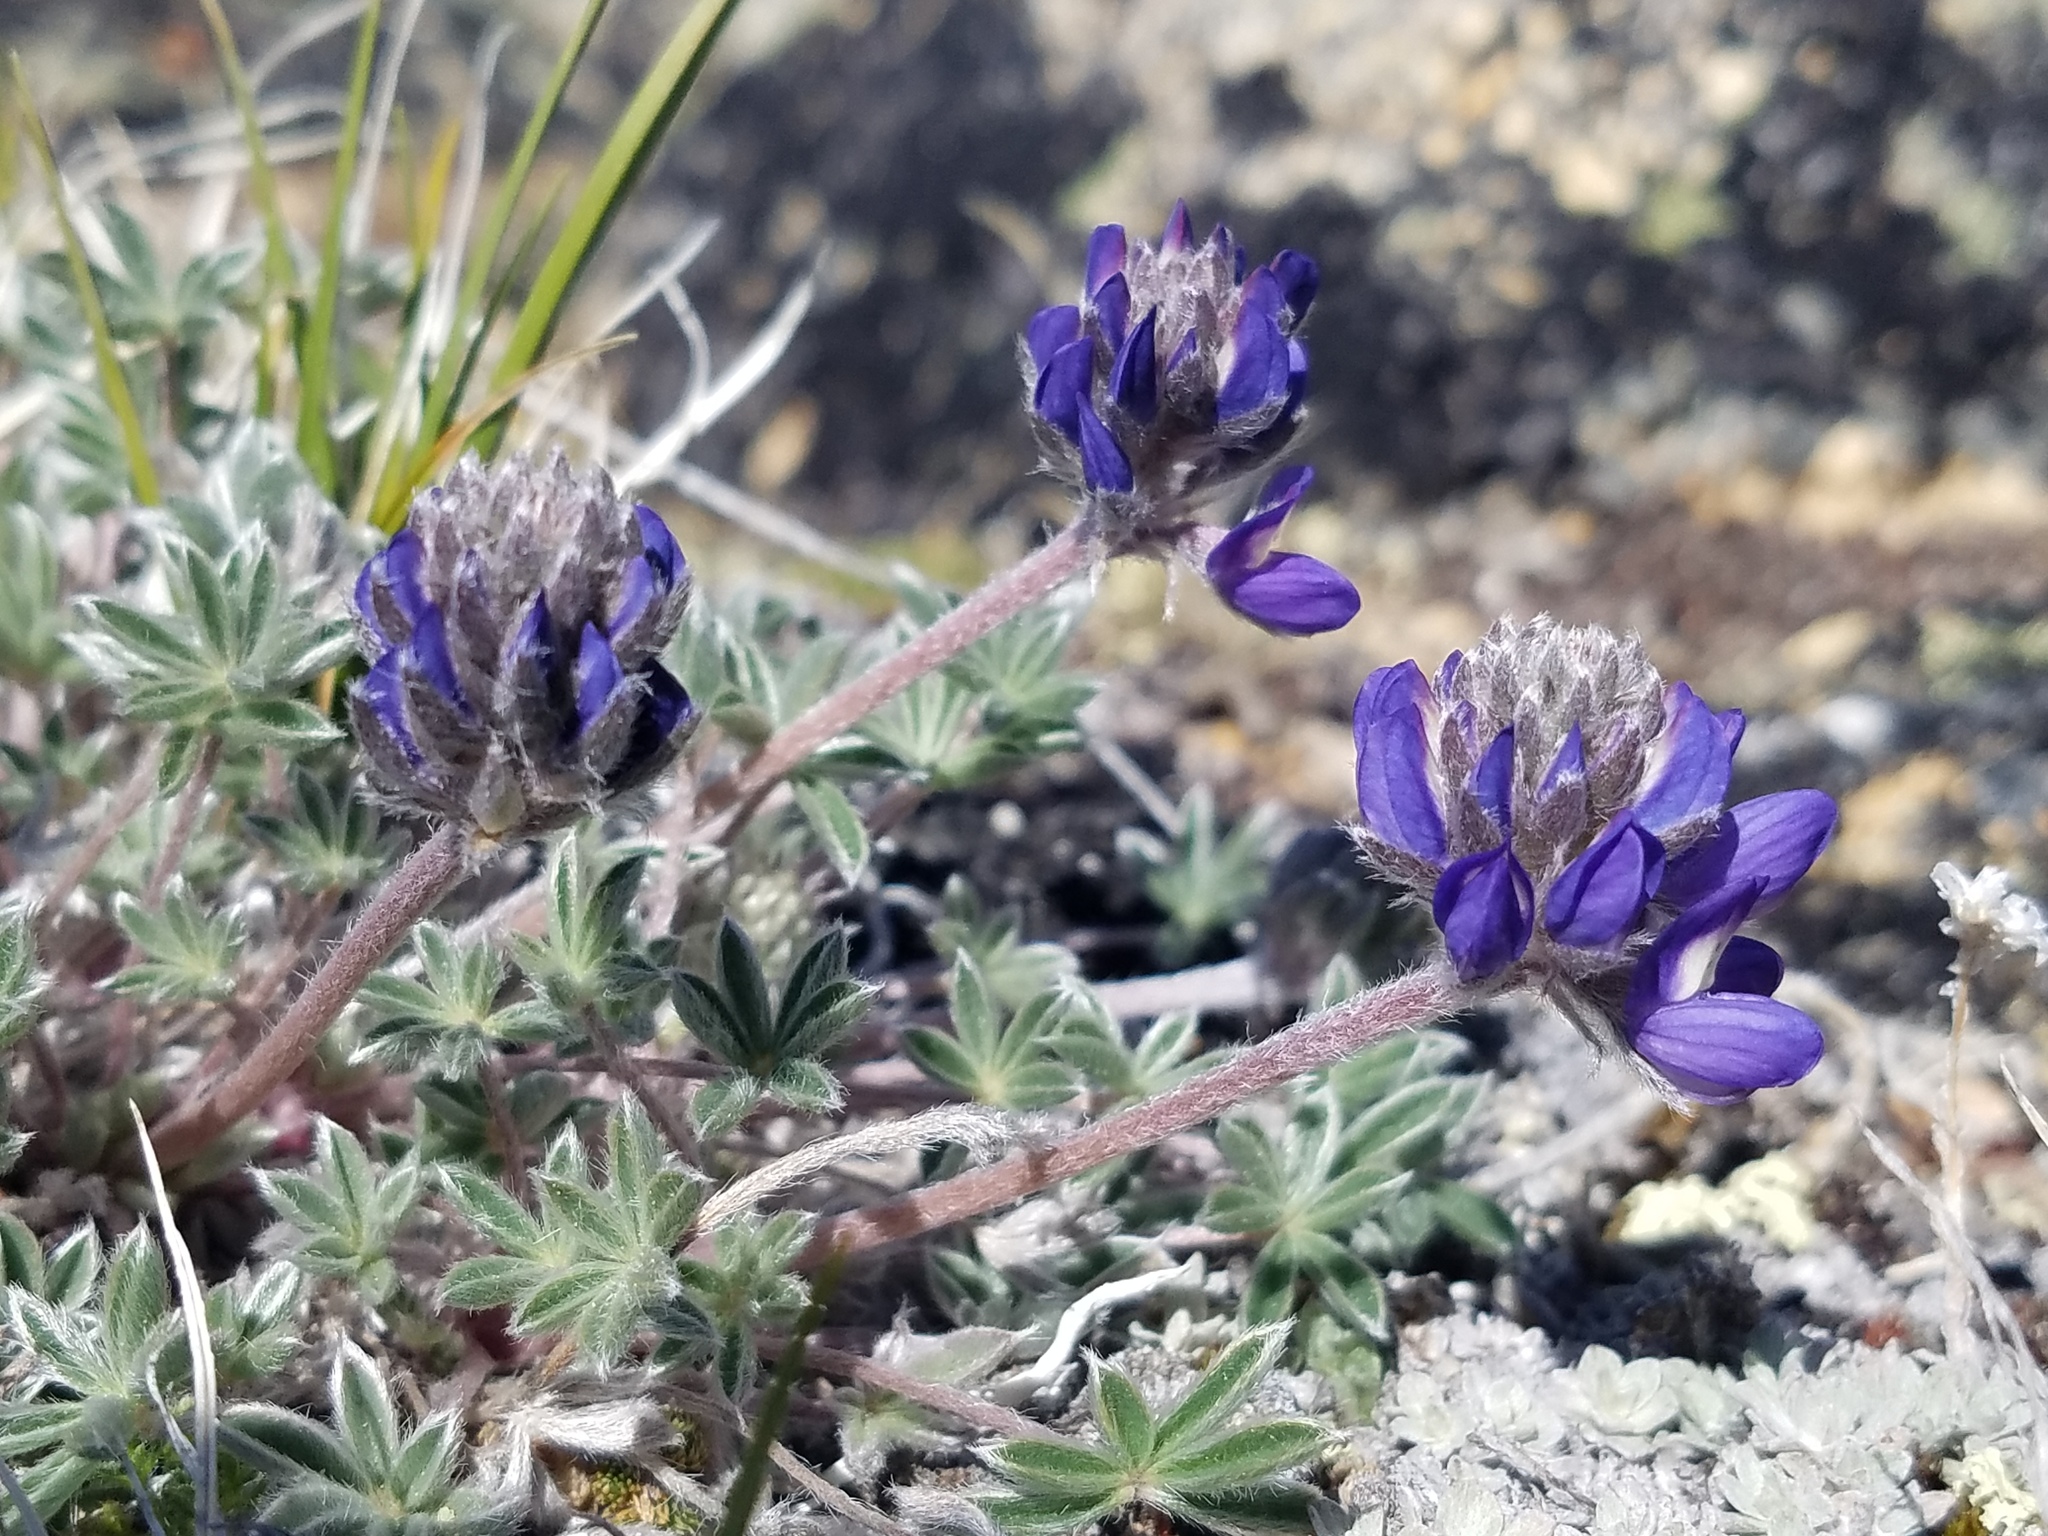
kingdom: Plantae
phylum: Tracheophyta
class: Magnoliopsida
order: Fabales
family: Fabaceae
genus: Lupinus
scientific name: Lupinus lepidus
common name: Prairie lupine
